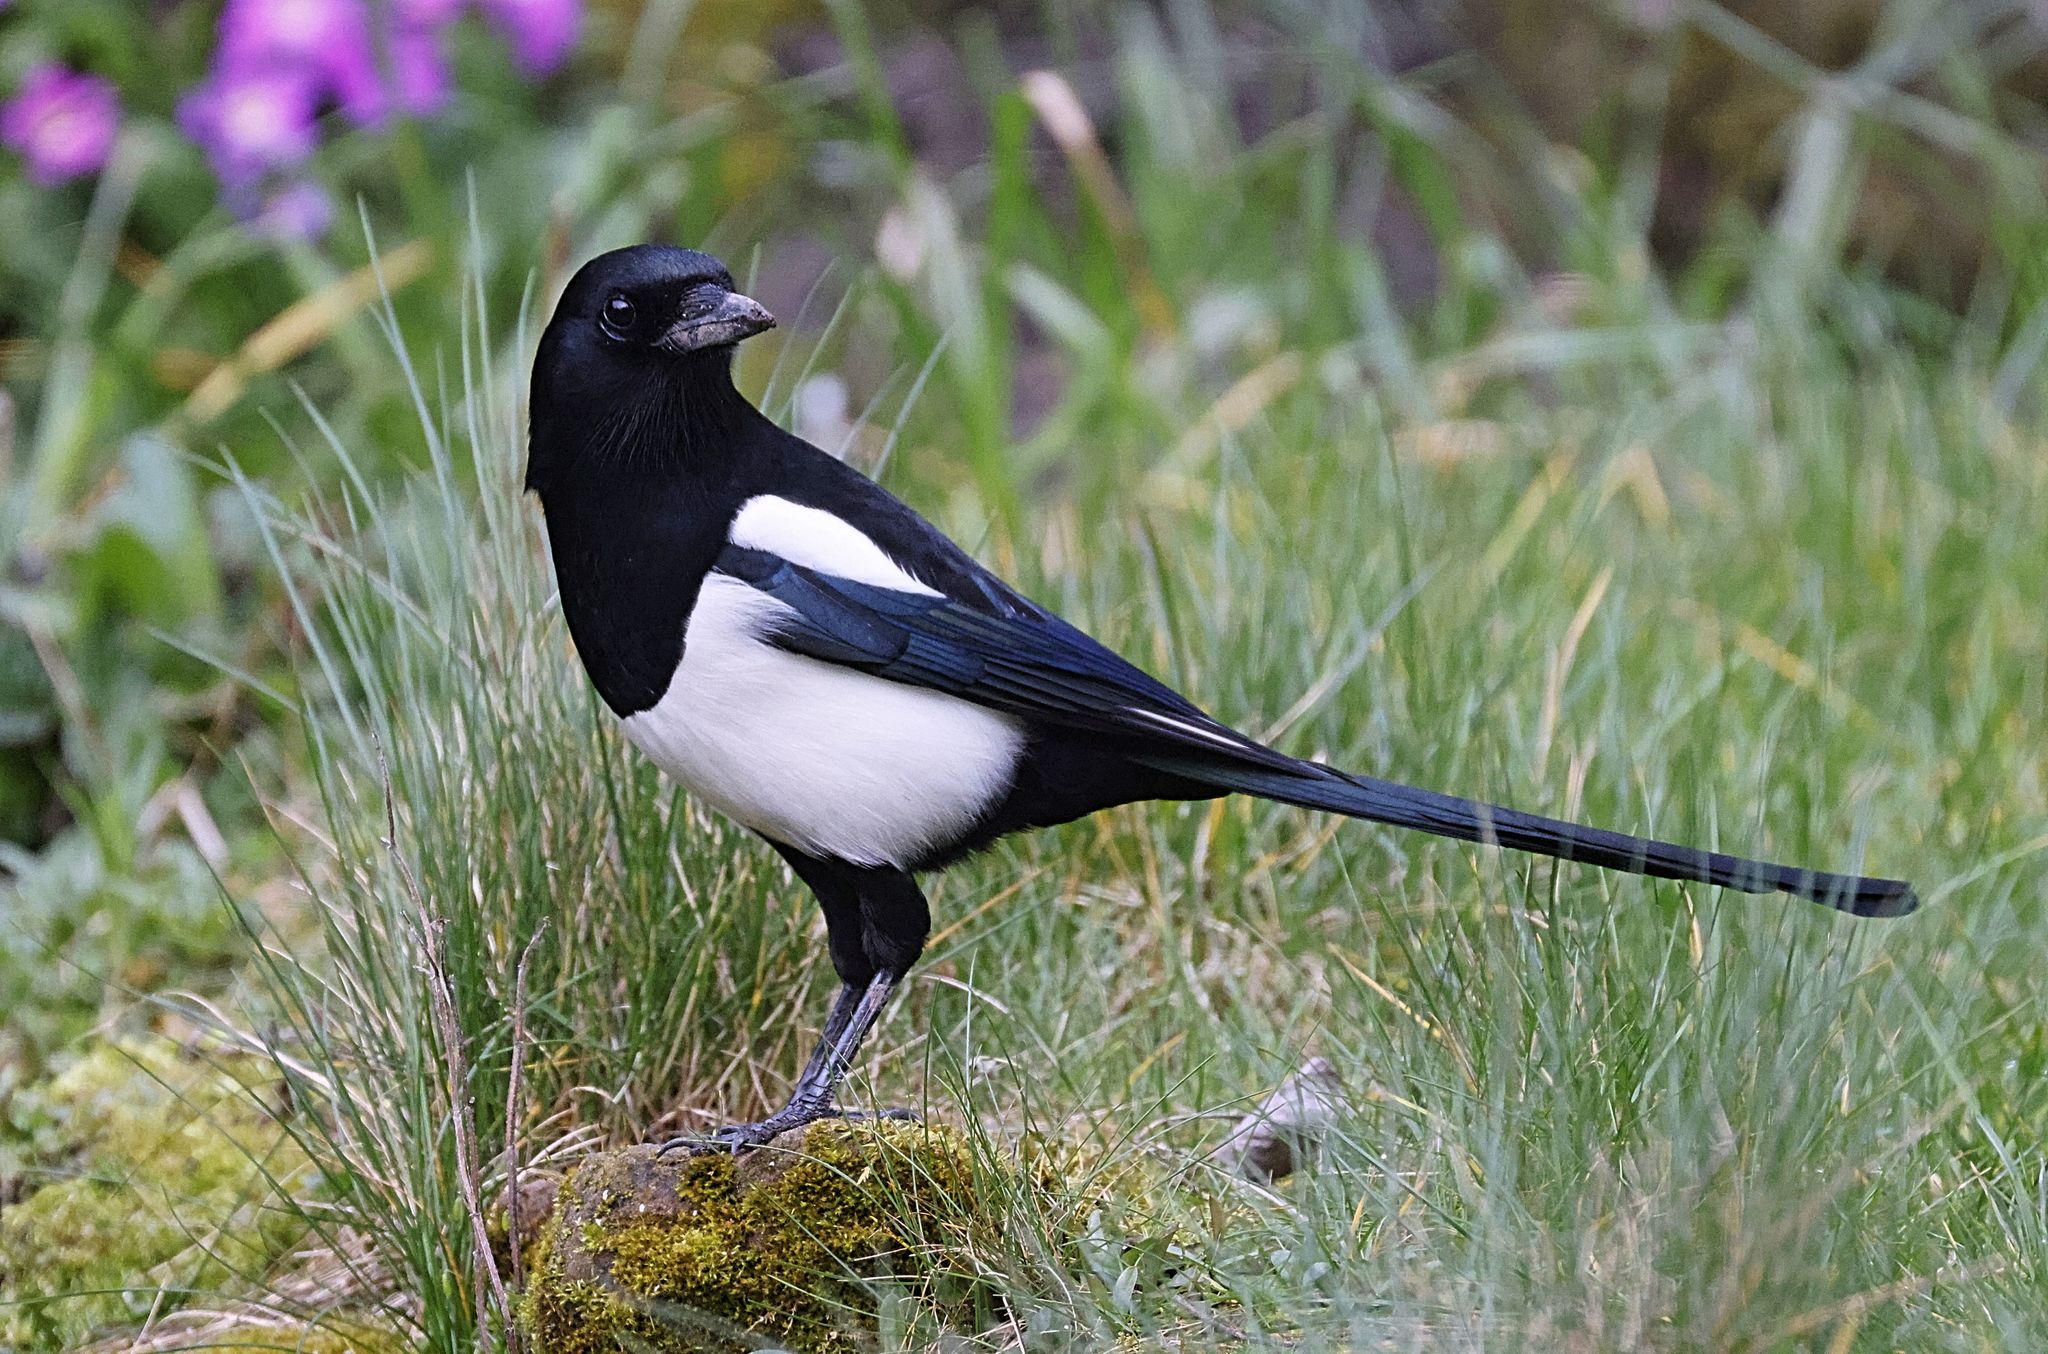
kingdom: Animalia
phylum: Chordata
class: Aves
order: Passeriformes
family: Corvidae
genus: Pica
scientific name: Pica pica
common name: Eurasian magpie
